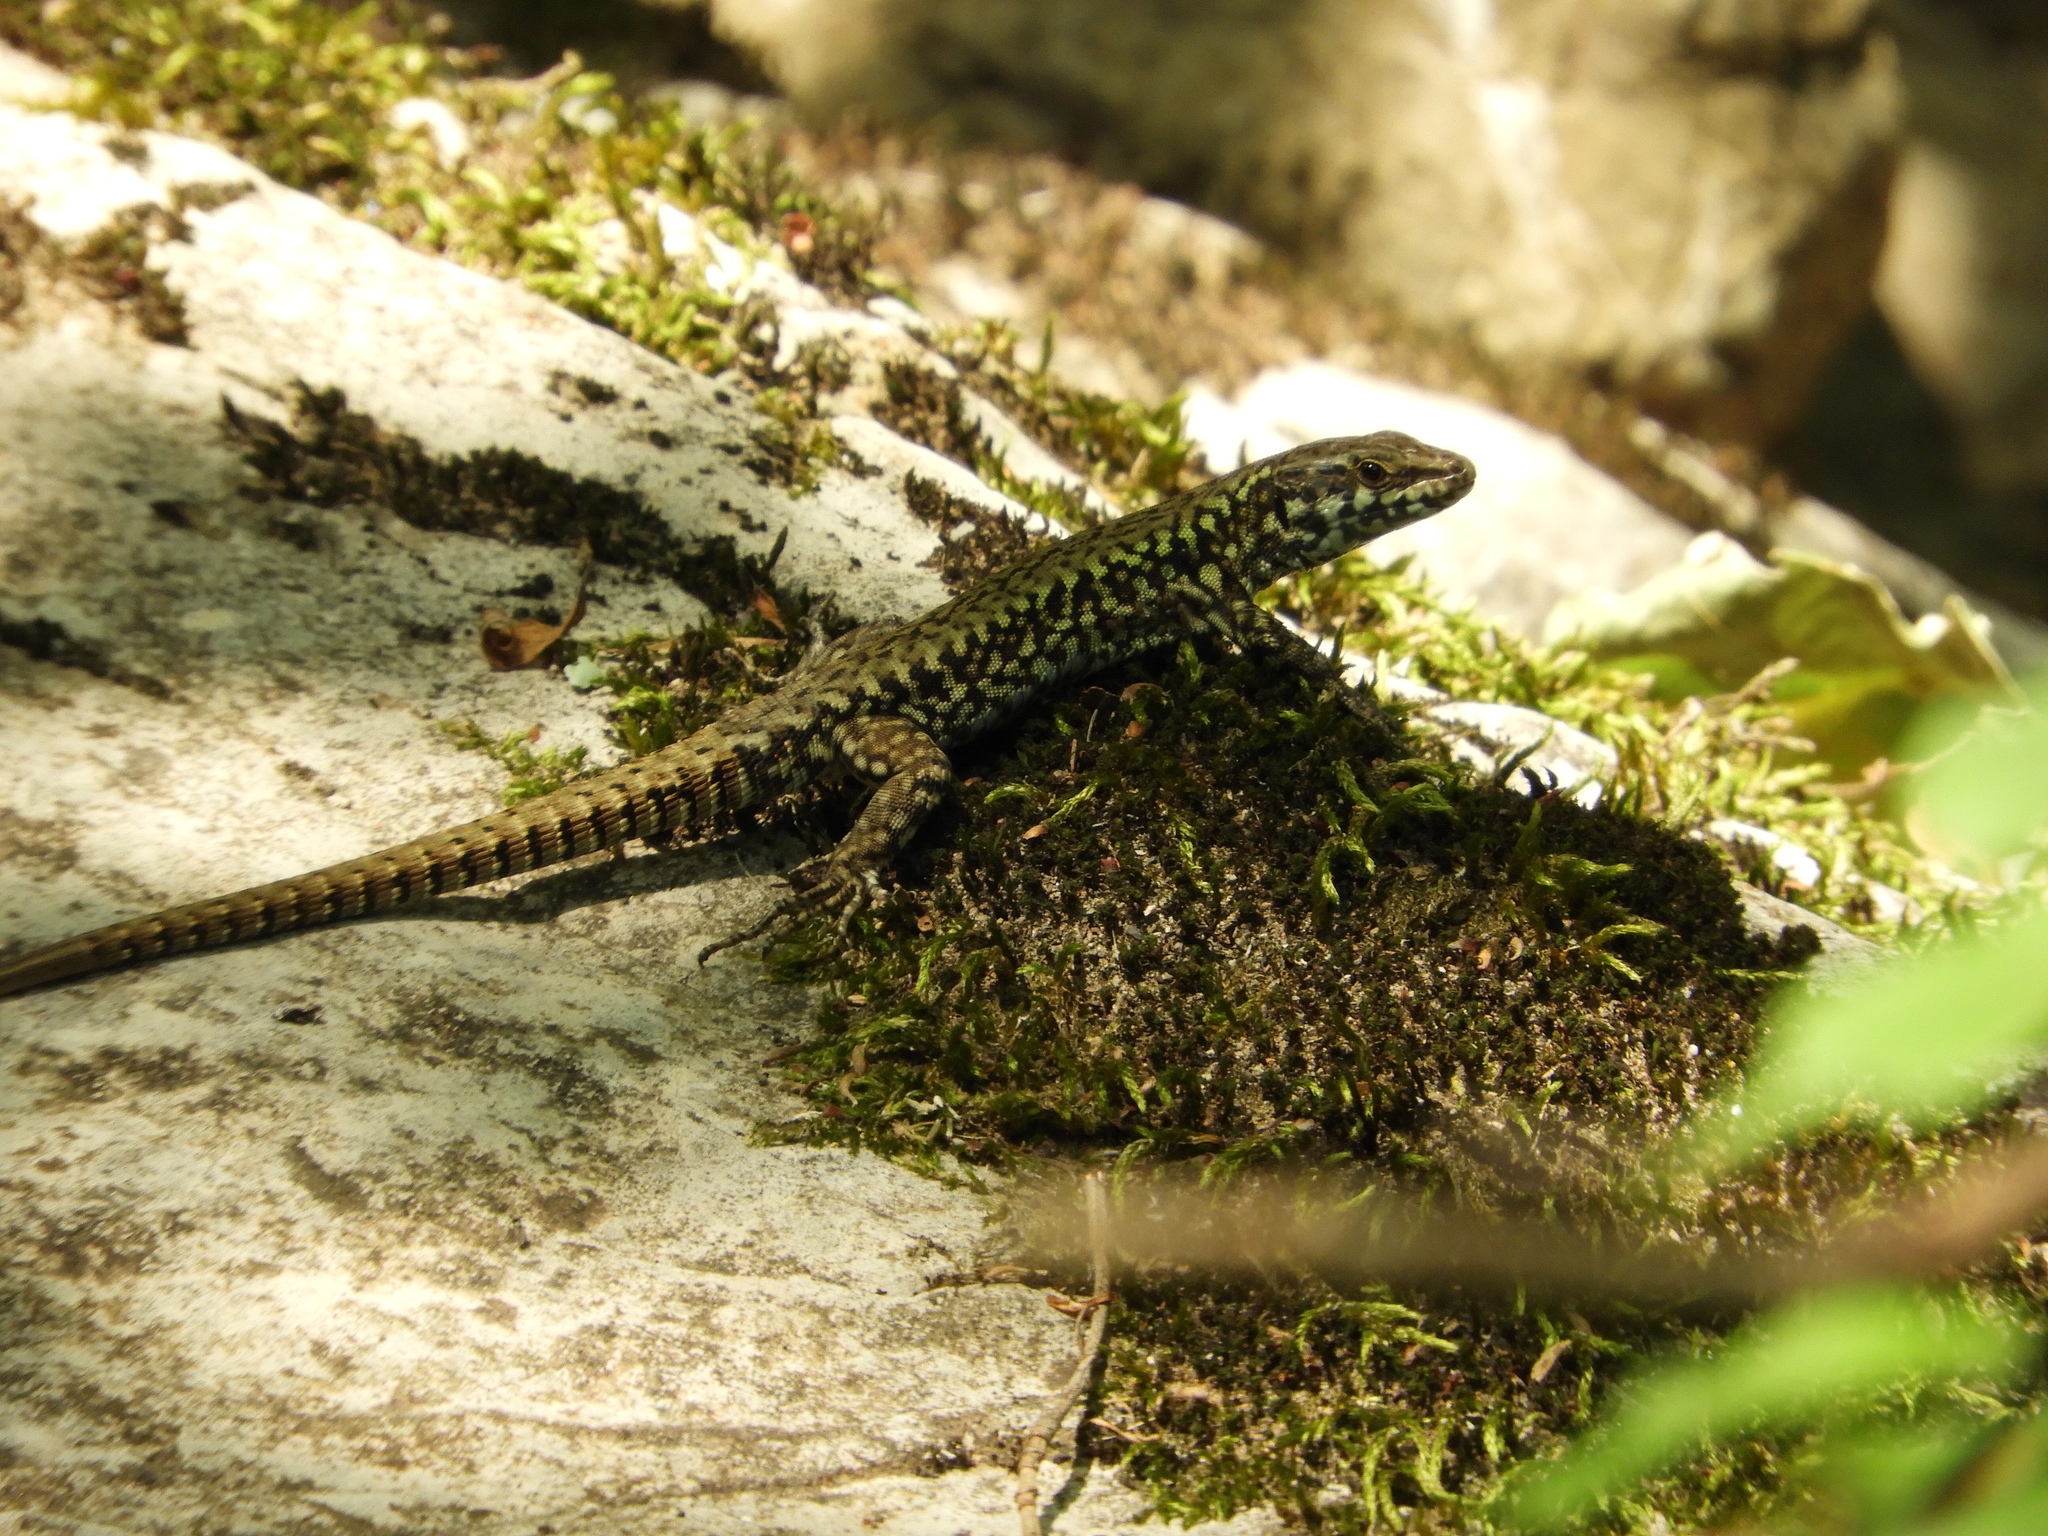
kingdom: Animalia
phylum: Chordata
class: Squamata
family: Lacertidae
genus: Podarcis
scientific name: Podarcis muralis
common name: Common wall lizard
